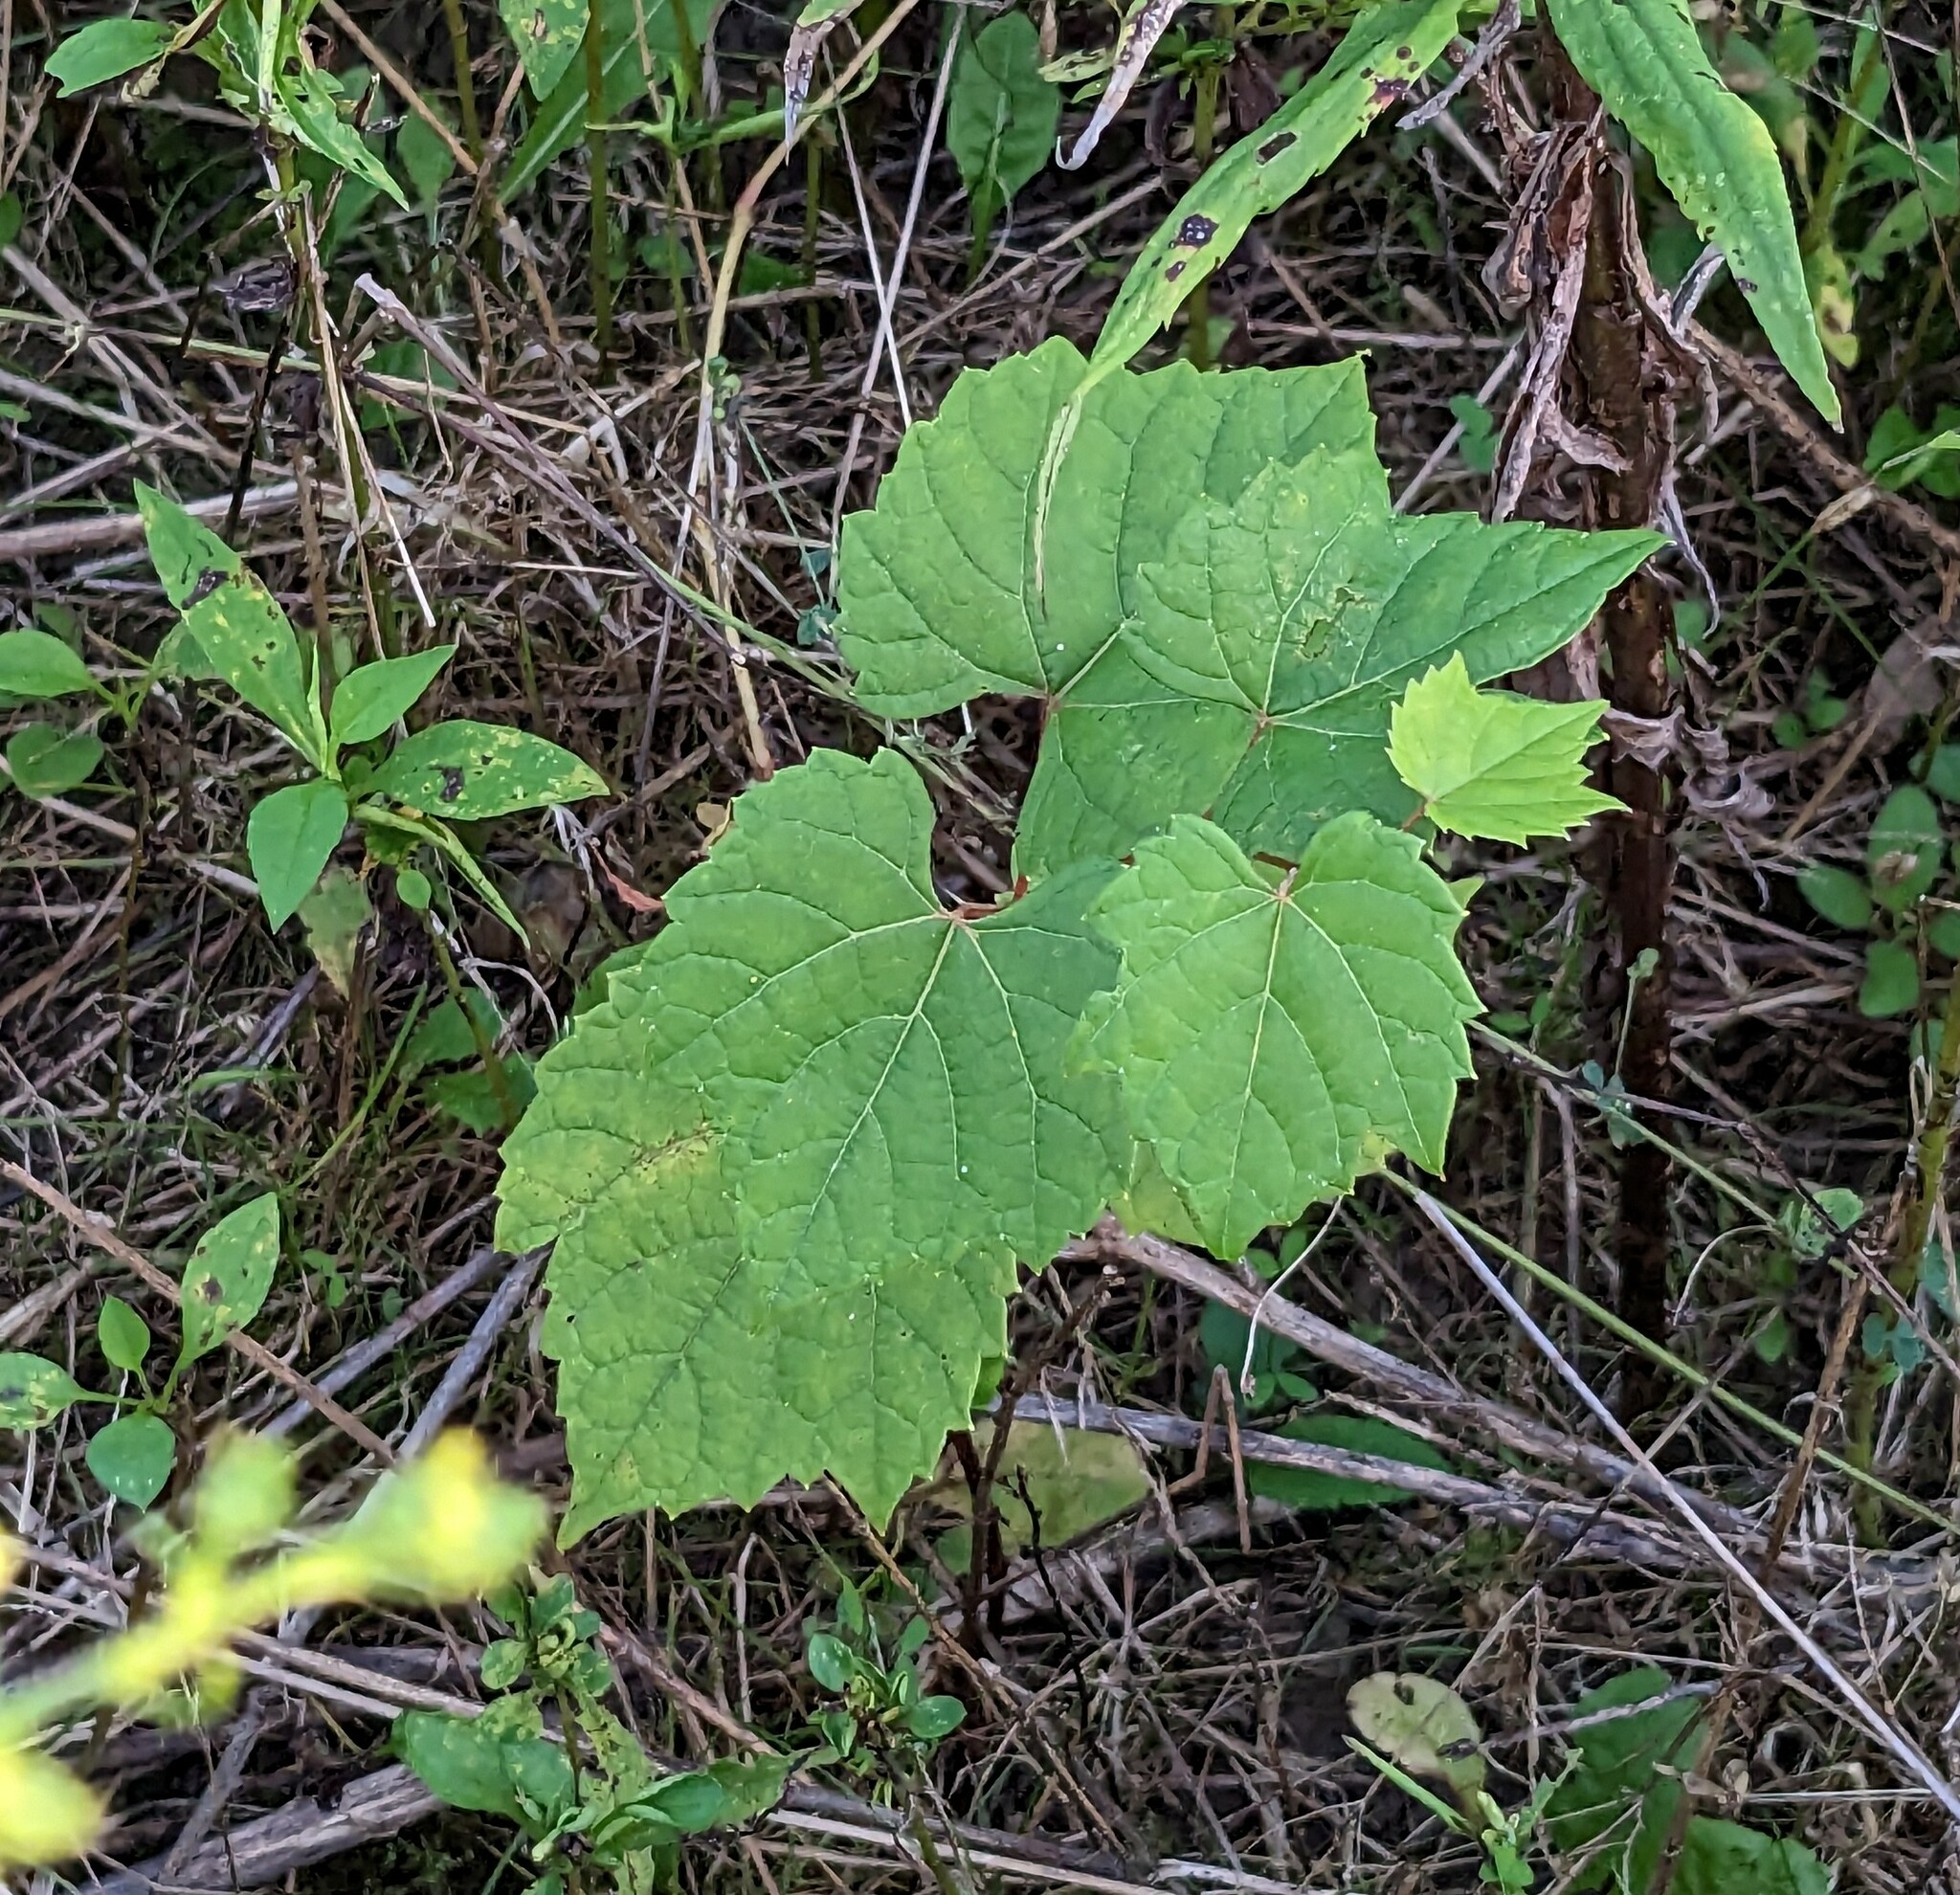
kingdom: Plantae
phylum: Tracheophyta
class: Magnoliopsida
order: Vitales
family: Vitaceae
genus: Vitis
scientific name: Vitis riparia
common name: Frost grape
